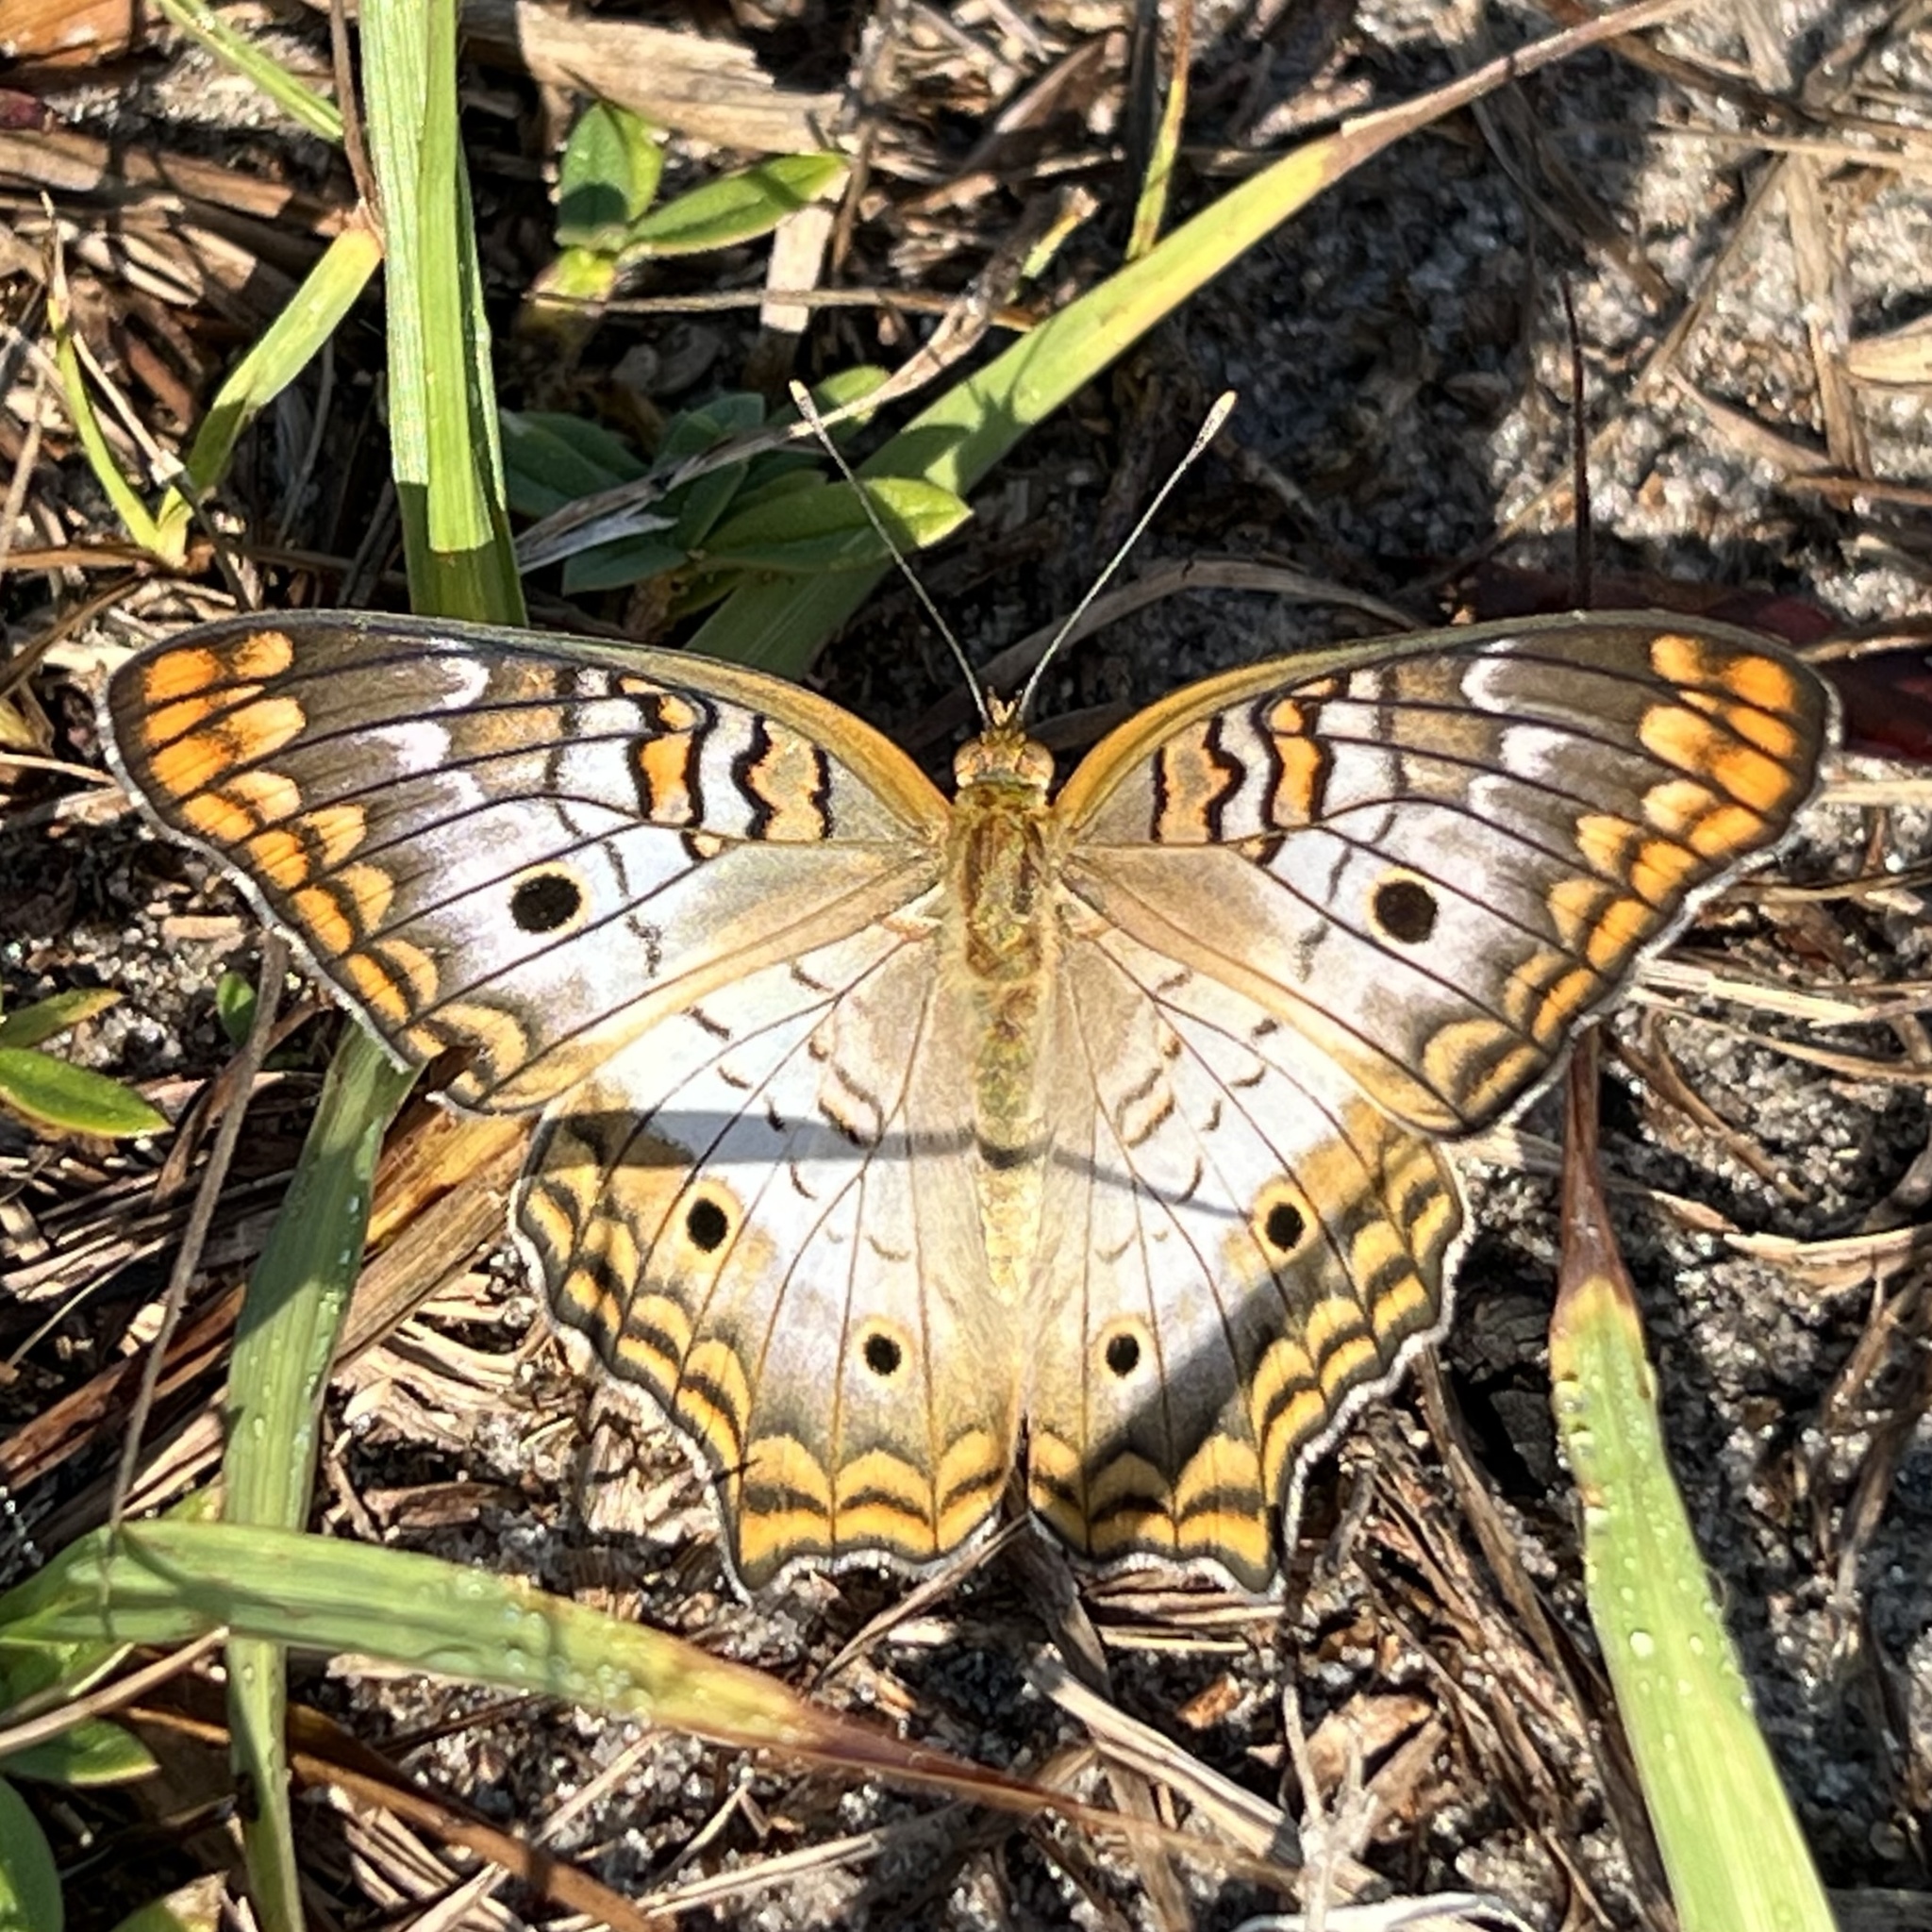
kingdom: Animalia
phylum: Arthropoda
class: Insecta
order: Lepidoptera
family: Nymphalidae
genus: Anartia
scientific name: Anartia jatrophae
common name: White peacock
